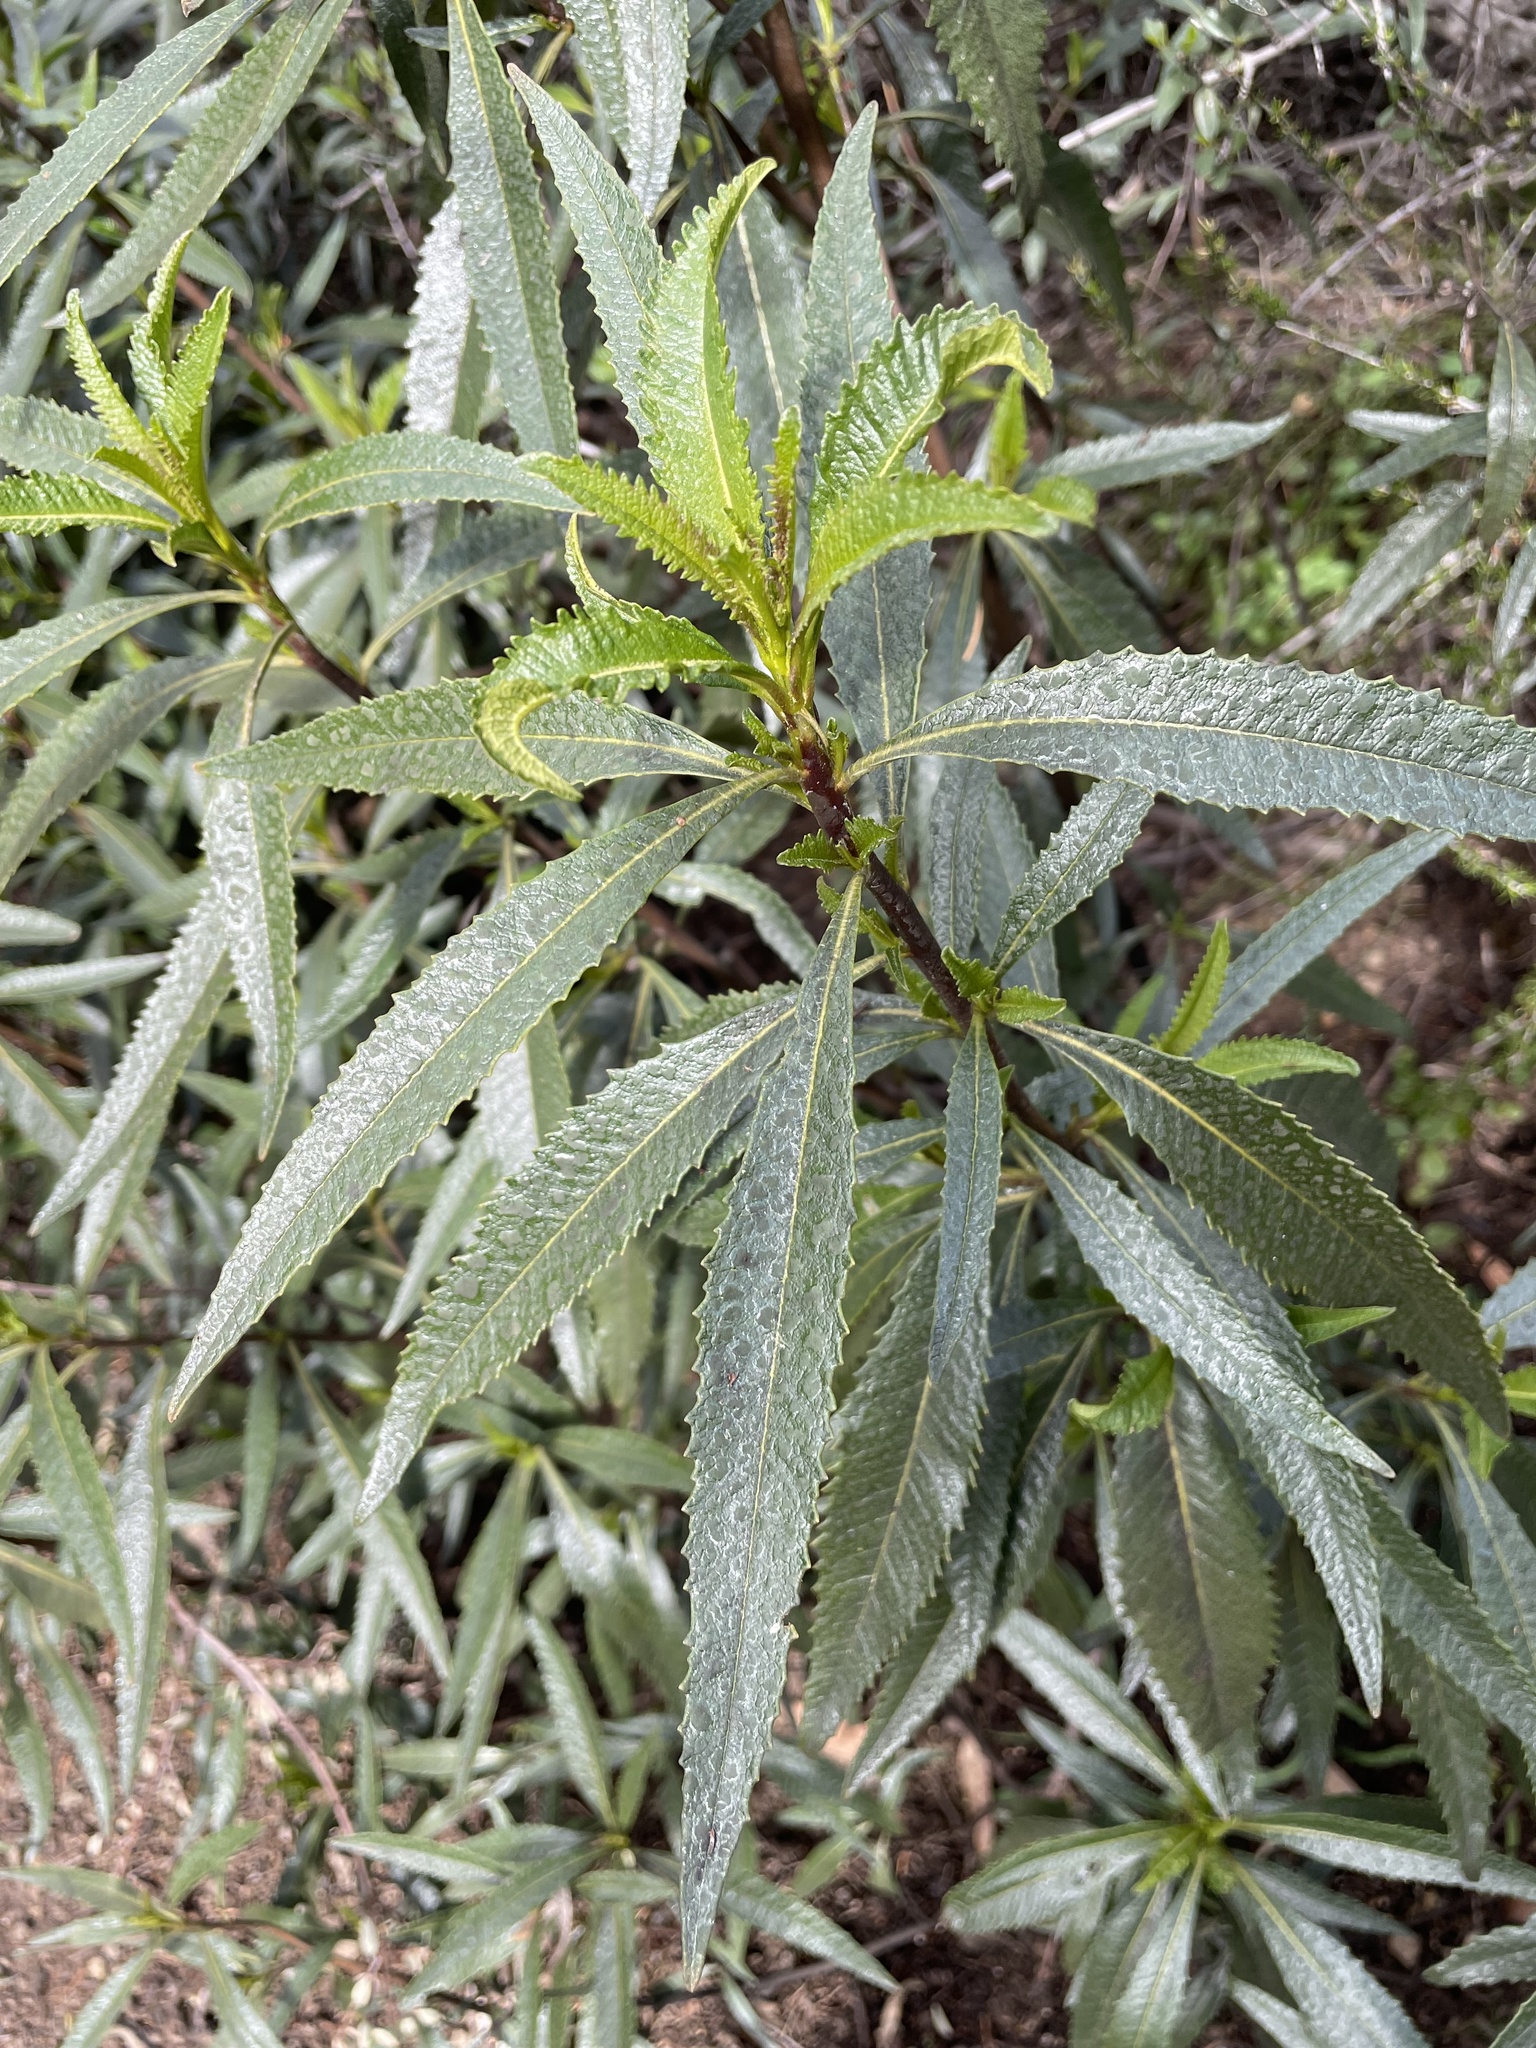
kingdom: Plantae
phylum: Tracheophyta
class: Magnoliopsida
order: Boraginales
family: Namaceae
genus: Eriodictyon
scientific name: Eriodictyon californicum
